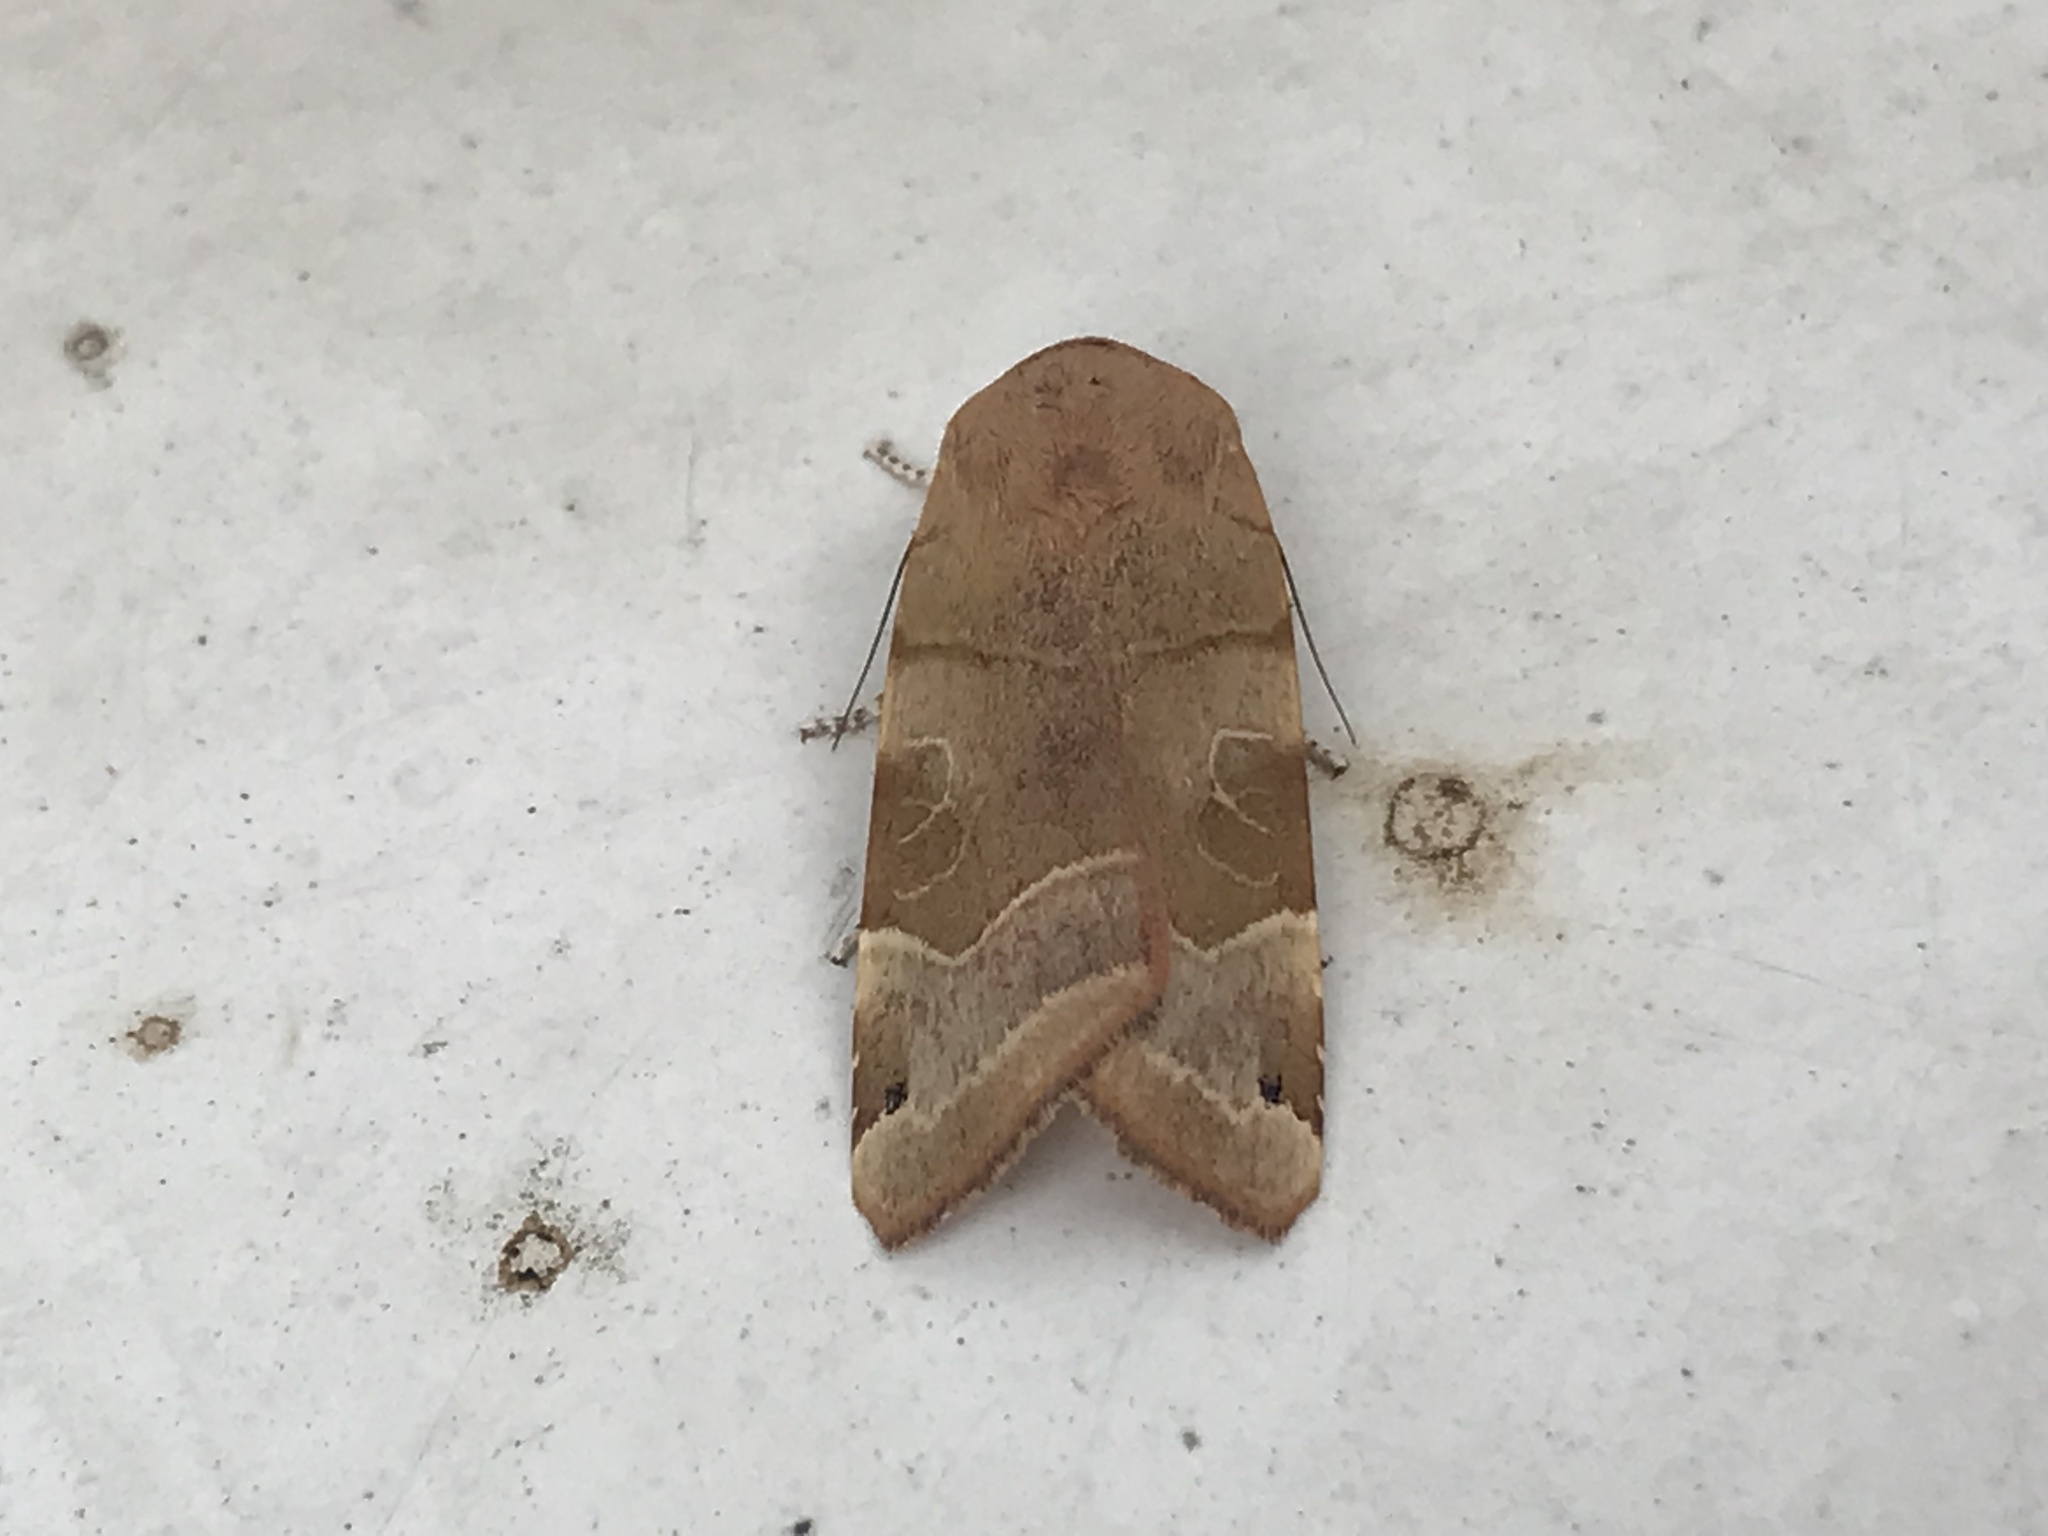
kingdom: Animalia
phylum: Arthropoda
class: Insecta
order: Lepidoptera
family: Noctuidae
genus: Noctua
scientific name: Noctua fimbriata
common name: Broad-bordered yellow underwing
